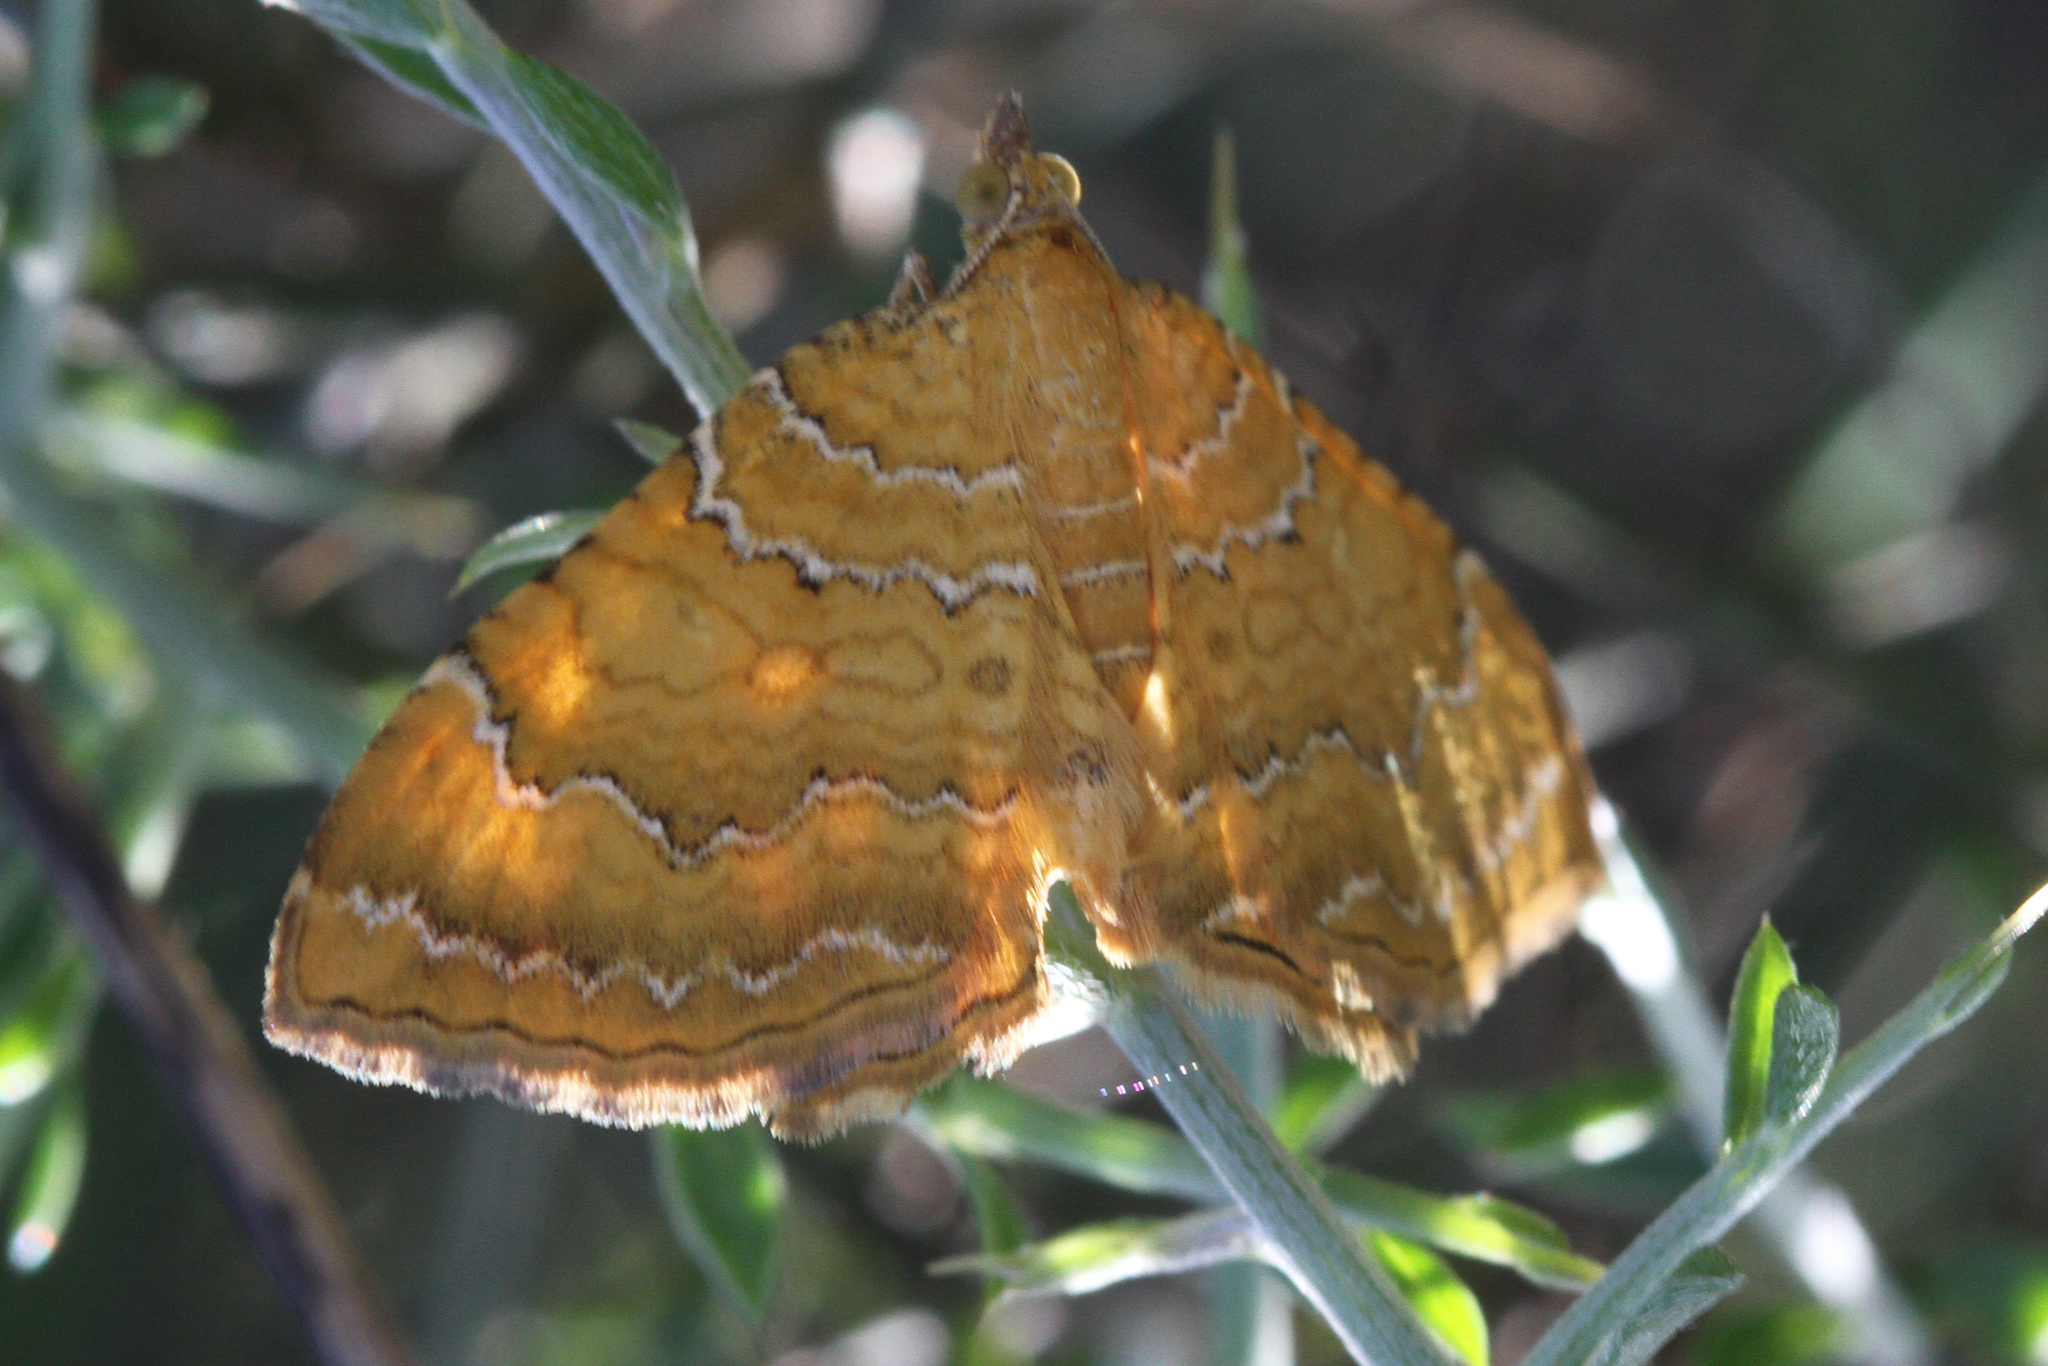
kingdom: Animalia
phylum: Arthropoda
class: Insecta
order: Lepidoptera
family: Geometridae
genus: Camptogramma
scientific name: Camptogramma bilineata
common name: Yellow shell
